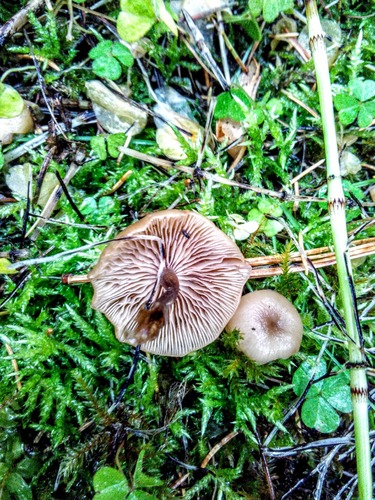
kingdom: Fungi
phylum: Basidiomycota
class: Agaricomycetes
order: Agaricales
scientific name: Agaricales
